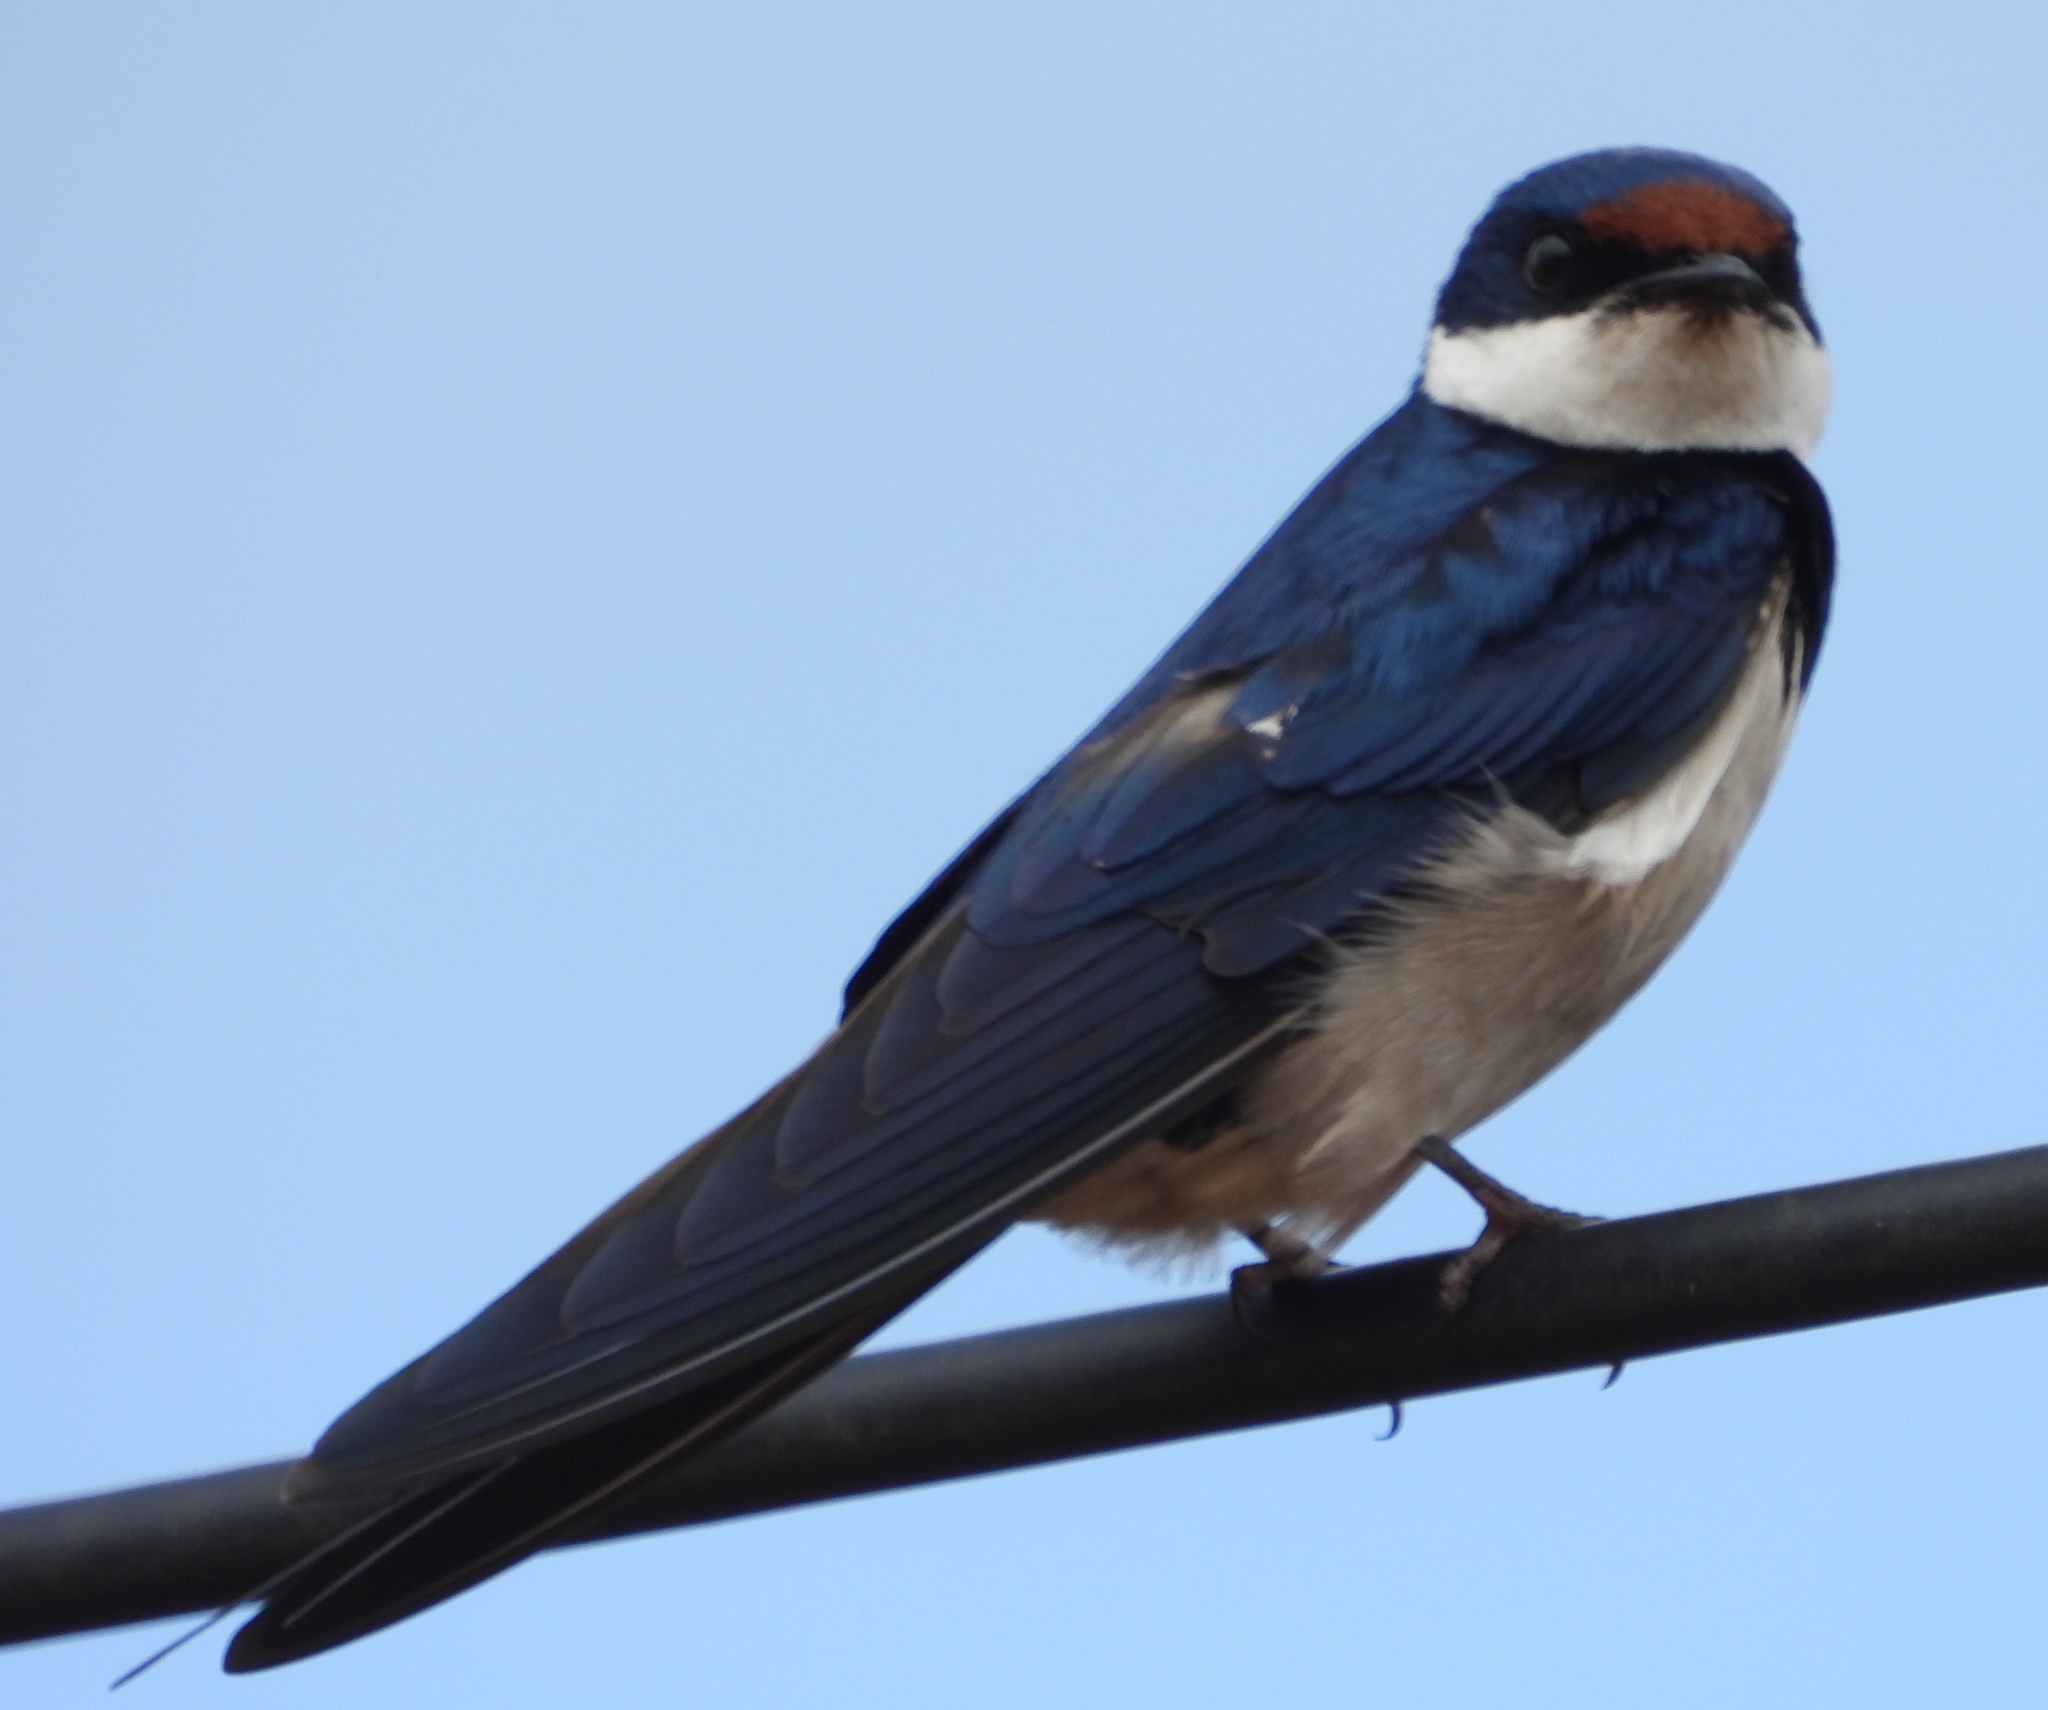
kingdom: Animalia
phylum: Chordata
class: Aves
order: Passeriformes
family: Hirundinidae
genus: Hirundo
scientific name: Hirundo albigularis
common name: White-throated swallow
